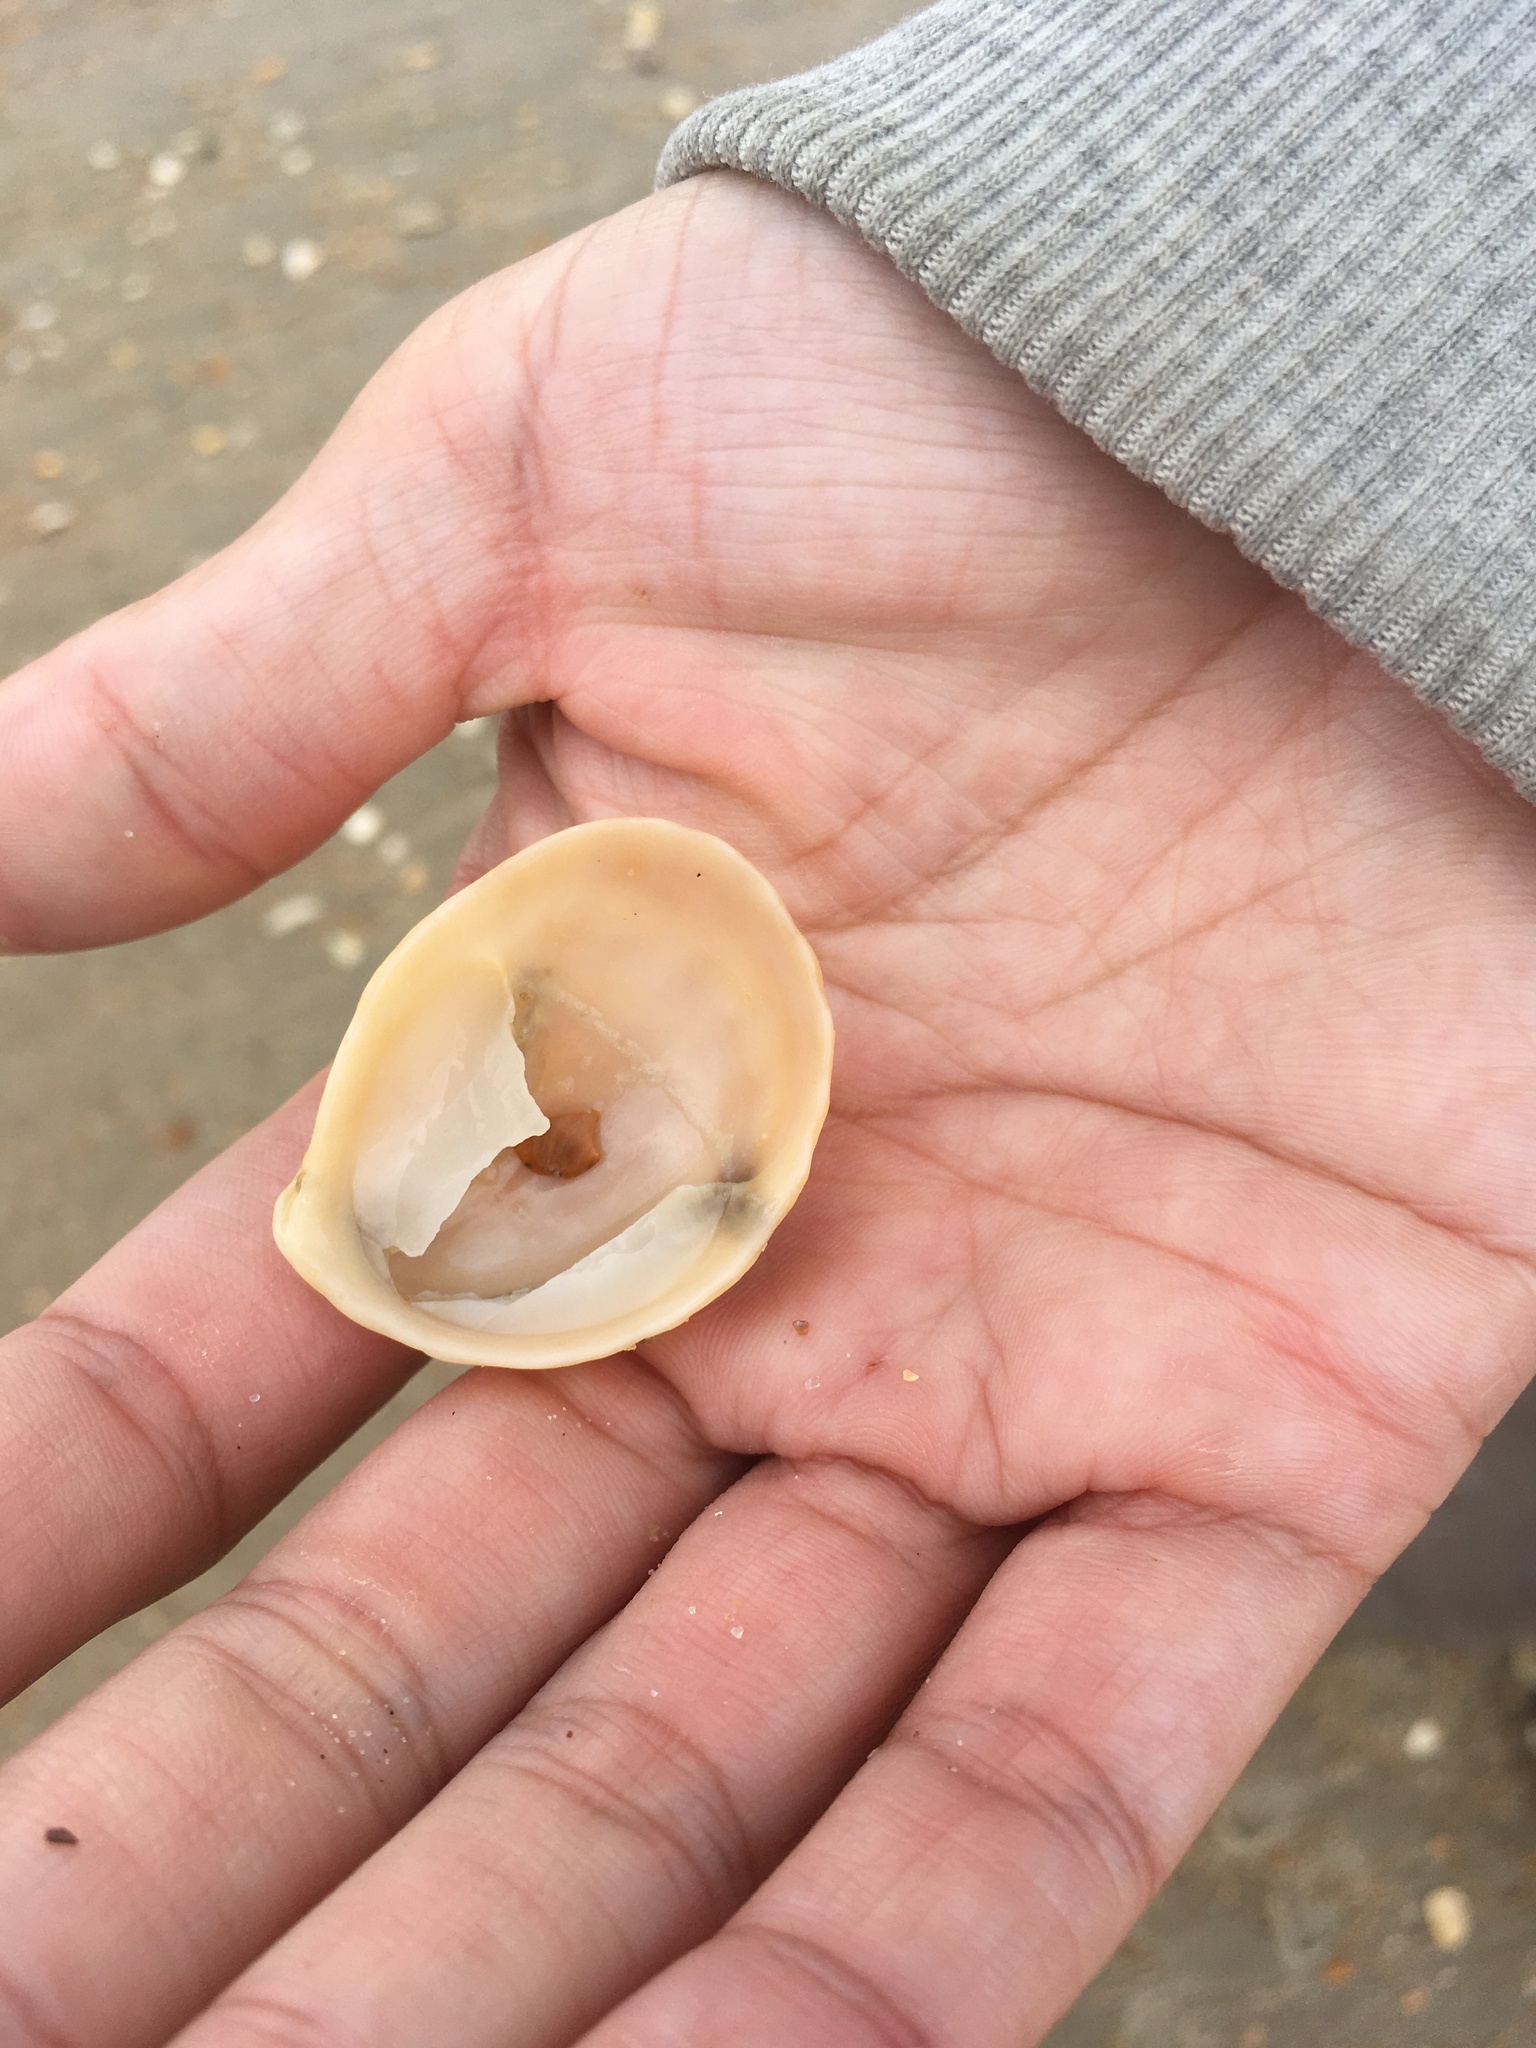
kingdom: Animalia
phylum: Mollusca
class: Gastropoda
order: Littorinimorpha
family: Calyptraeidae
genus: Crepidula
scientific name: Crepidula fornicata
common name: Slipper limpet
